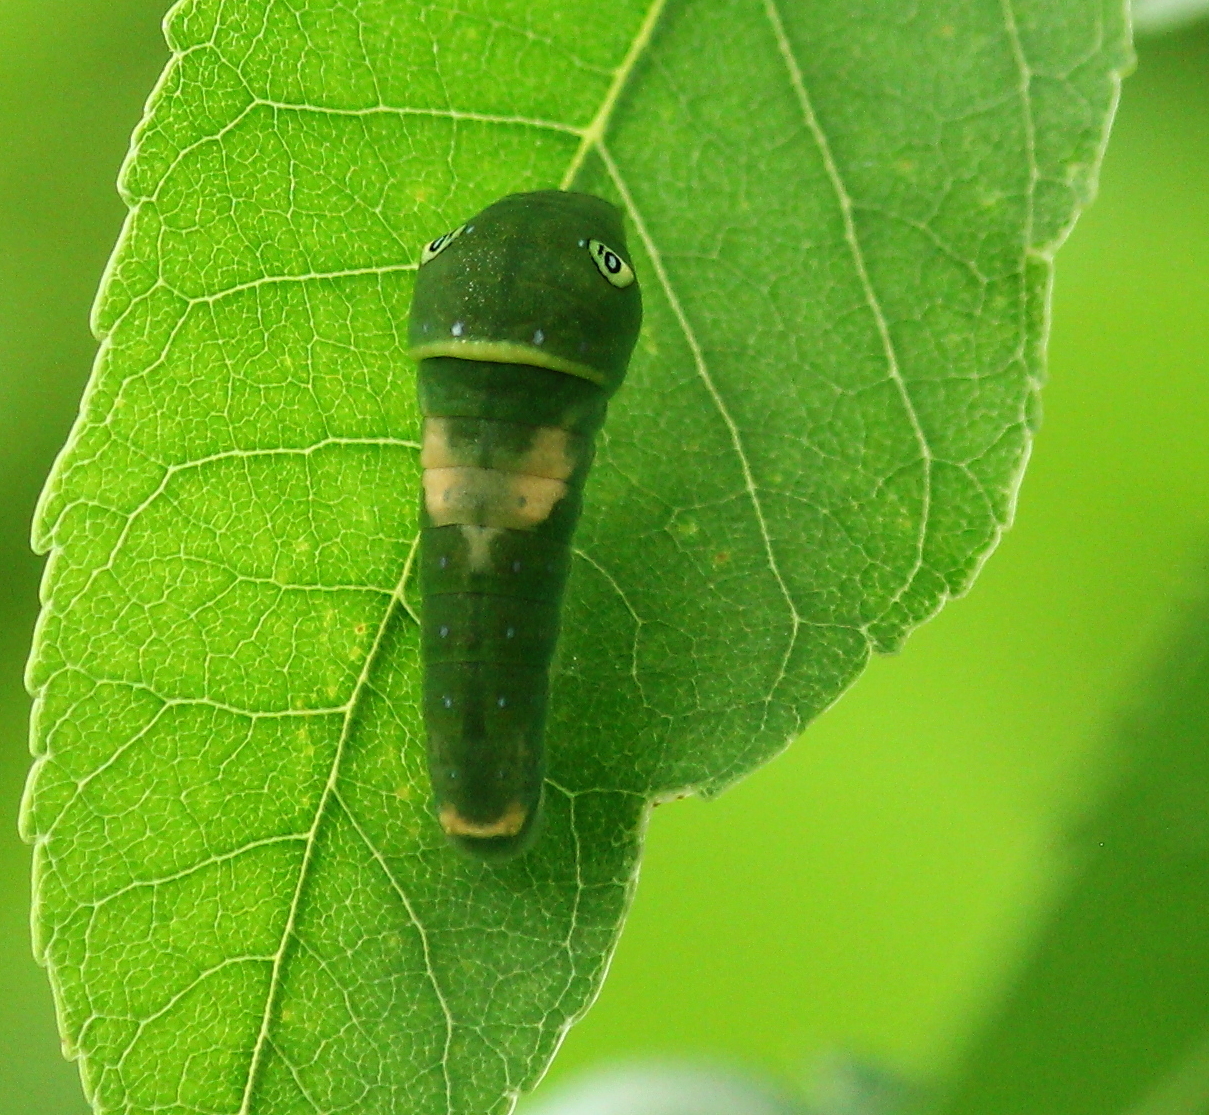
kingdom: Animalia
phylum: Arthropoda
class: Insecta
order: Lepidoptera
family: Papilionidae
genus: Papilio
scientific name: Papilio glaucus
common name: Tiger swallowtail
